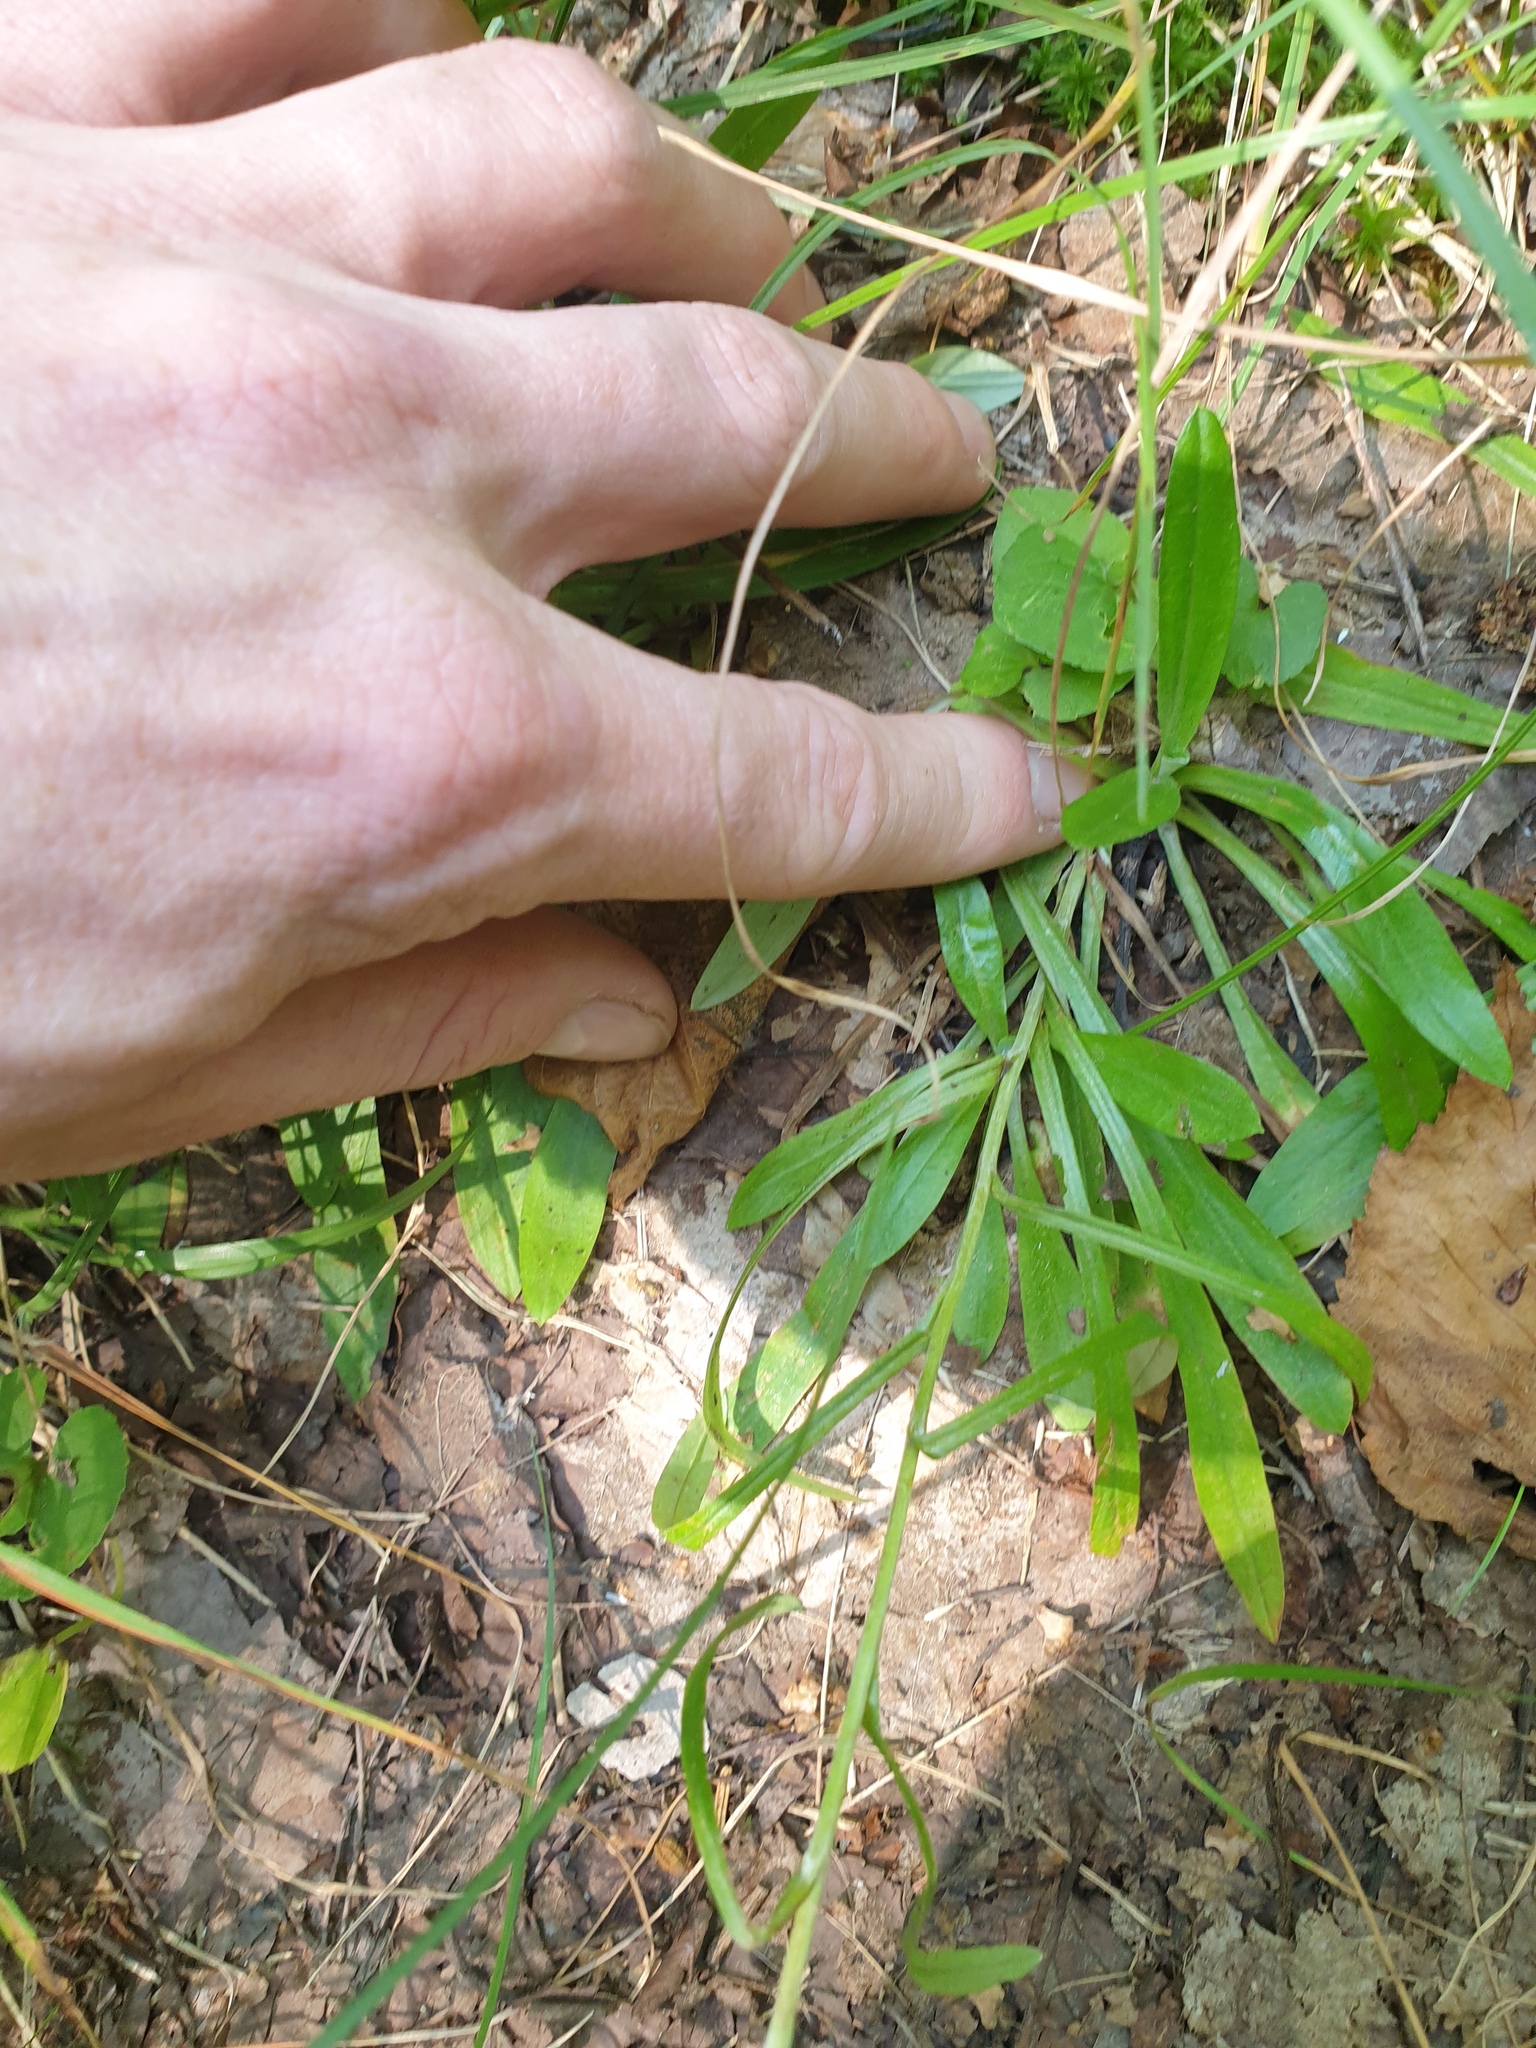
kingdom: Plantae
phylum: Tracheophyta
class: Magnoliopsida
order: Asterales
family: Asteraceae
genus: Omalotheca
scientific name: Omalotheca sylvatica
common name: Heath cudweed
